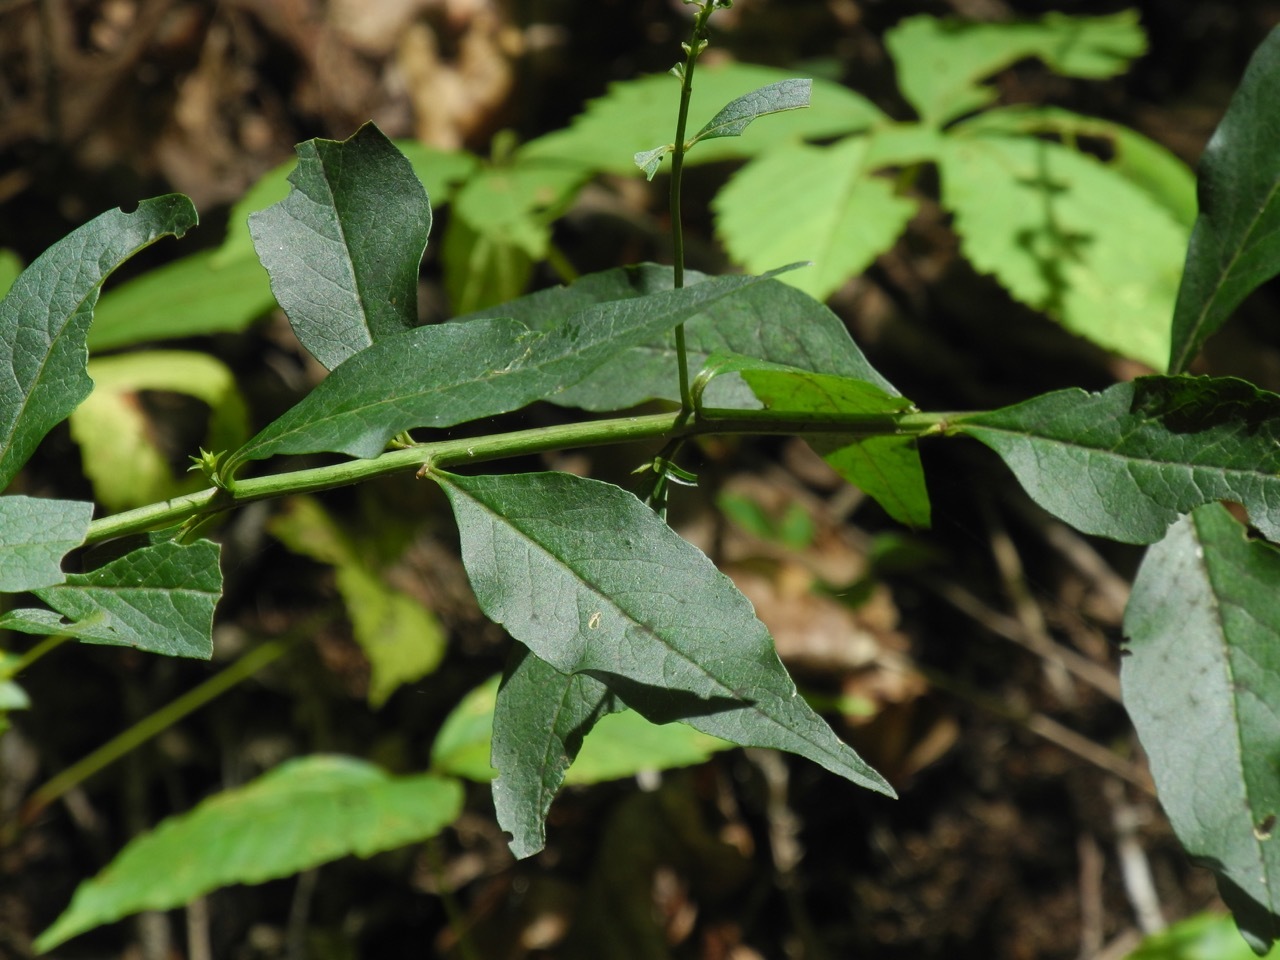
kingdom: Plantae
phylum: Tracheophyta
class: Magnoliopsida
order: Lamiales
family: Orobanchaceae
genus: Aureolaria
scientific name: Aureolaria levigata
